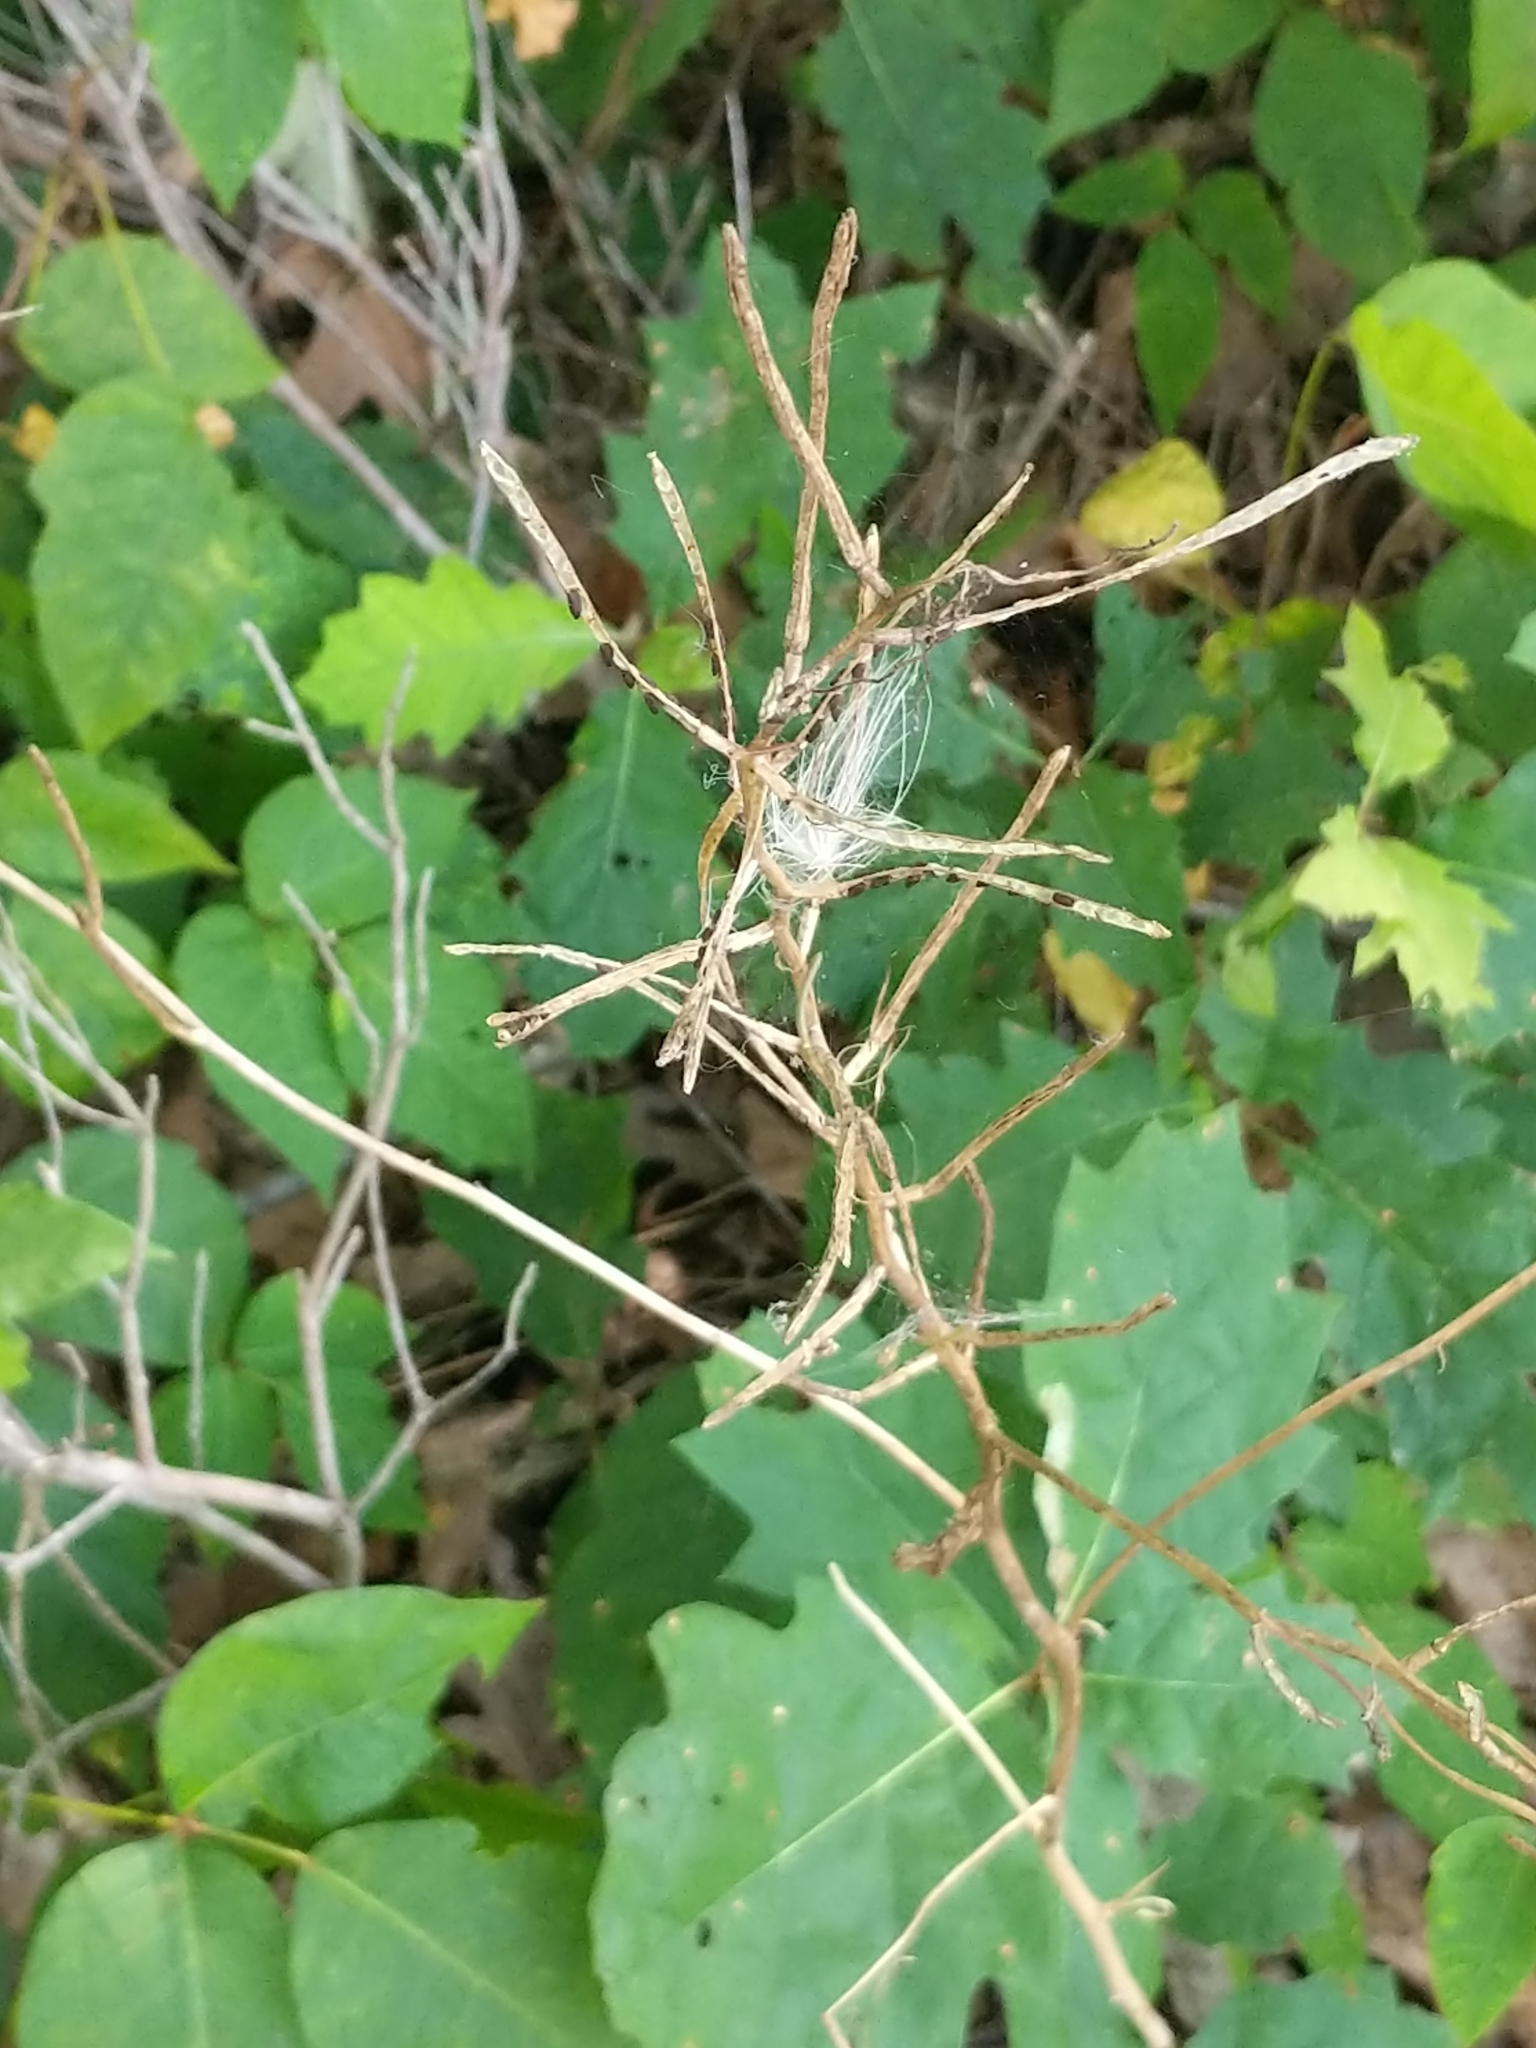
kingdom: Plantae
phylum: Tracheophyta
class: Magnoliopsida
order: Brassicales
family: Brassicaceae
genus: Alliaria
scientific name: Alliaria petiolata
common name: Garlic mustard
